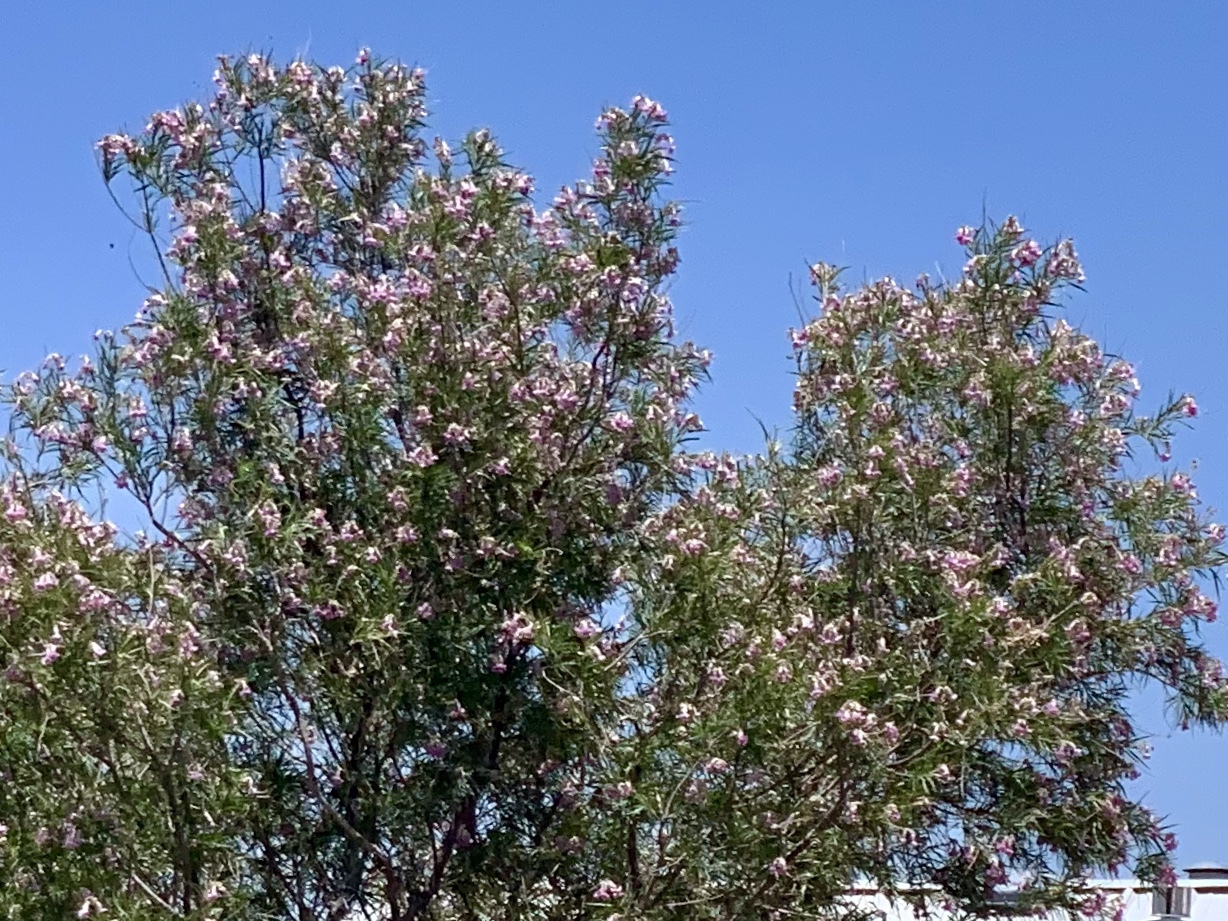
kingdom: Plantae
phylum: Tracheophyta
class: Magnoliopsida
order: Lamiales
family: Bignoniaceae
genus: Chilopsis
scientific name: Chilopsis linearis
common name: Desert-willow
